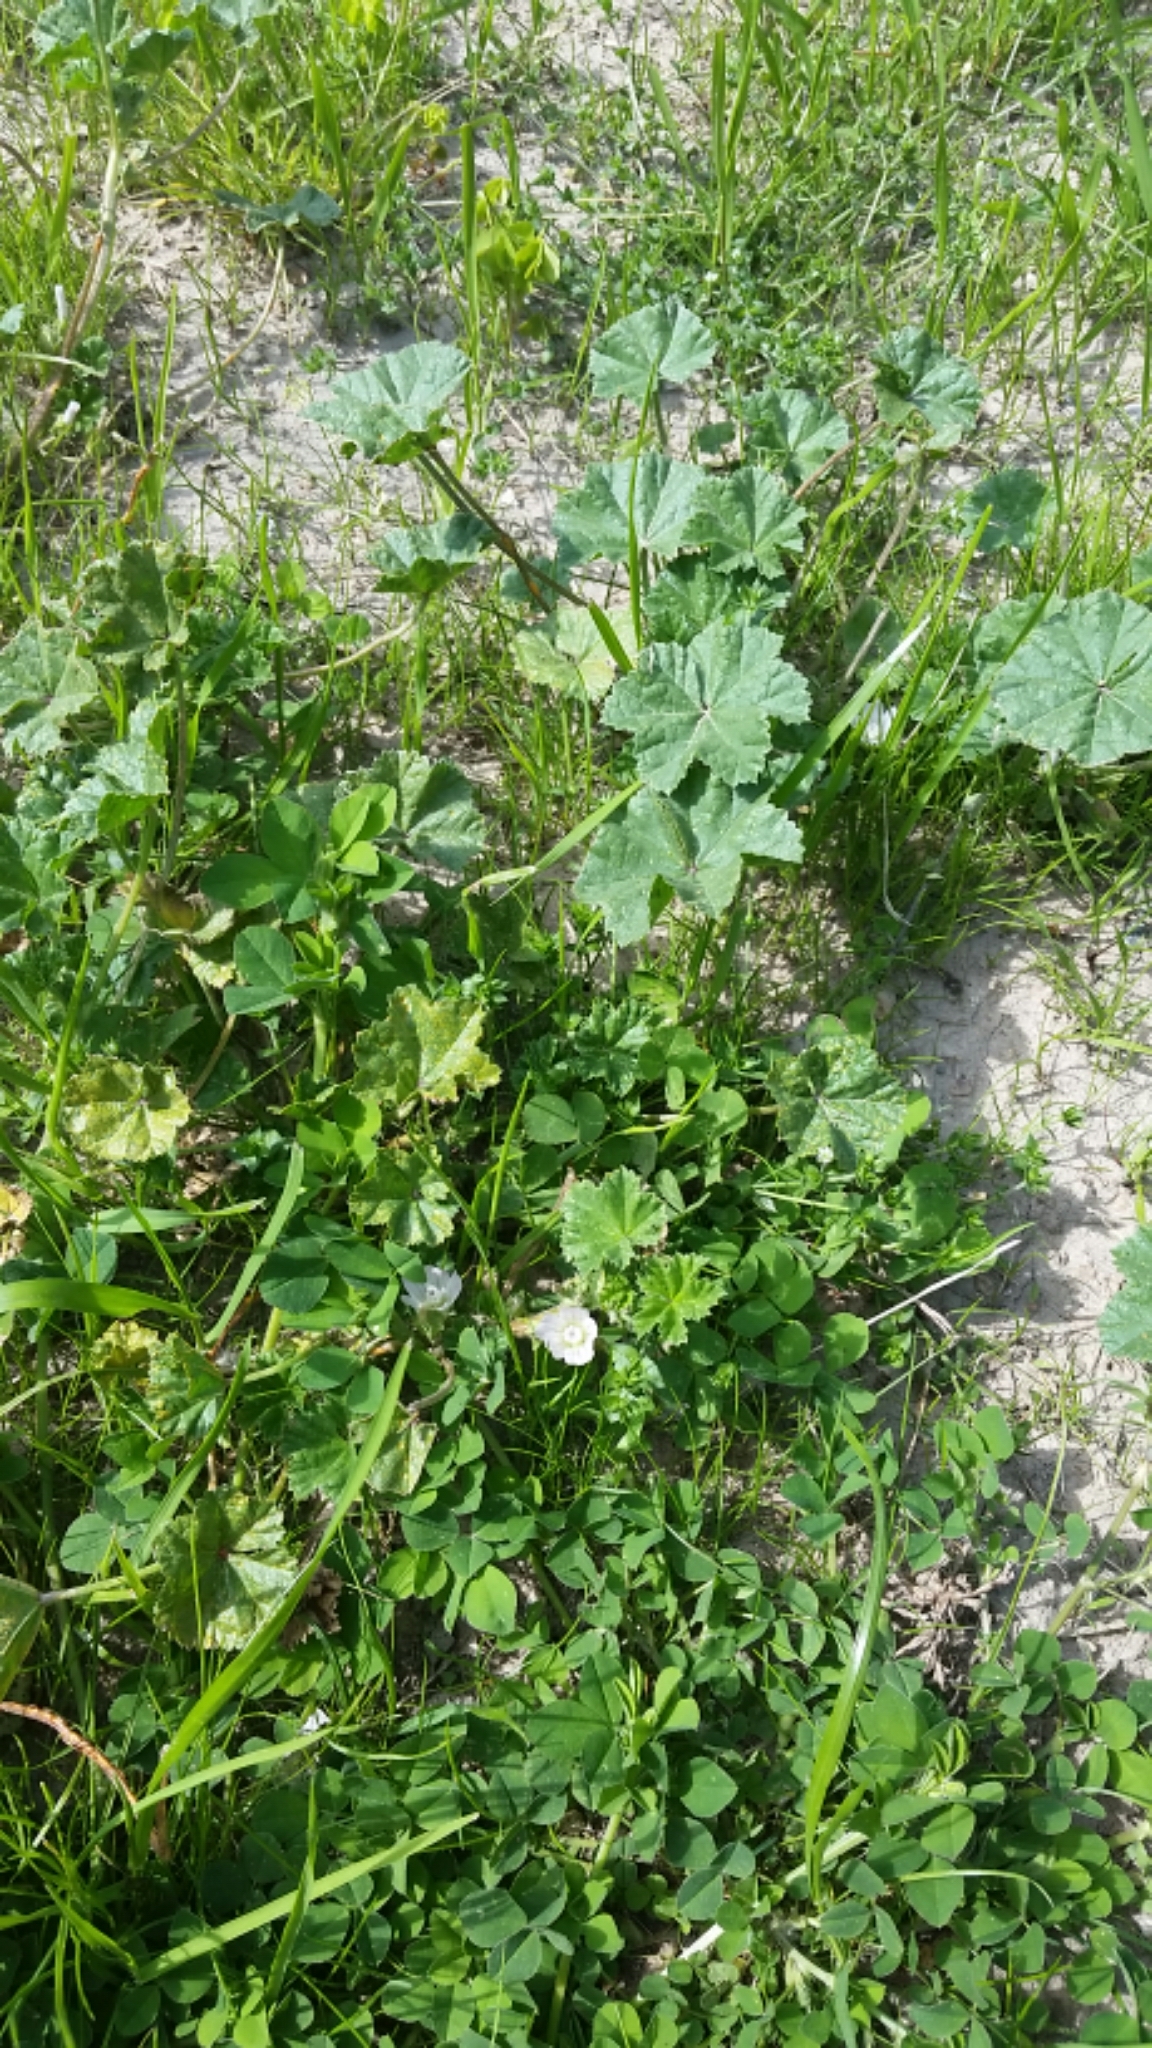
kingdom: Plantae
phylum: Tracheophyta
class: Magnoliopsida
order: Malvales
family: Malvaceae
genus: Malva
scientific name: Malva neglecta
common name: Common mallow
